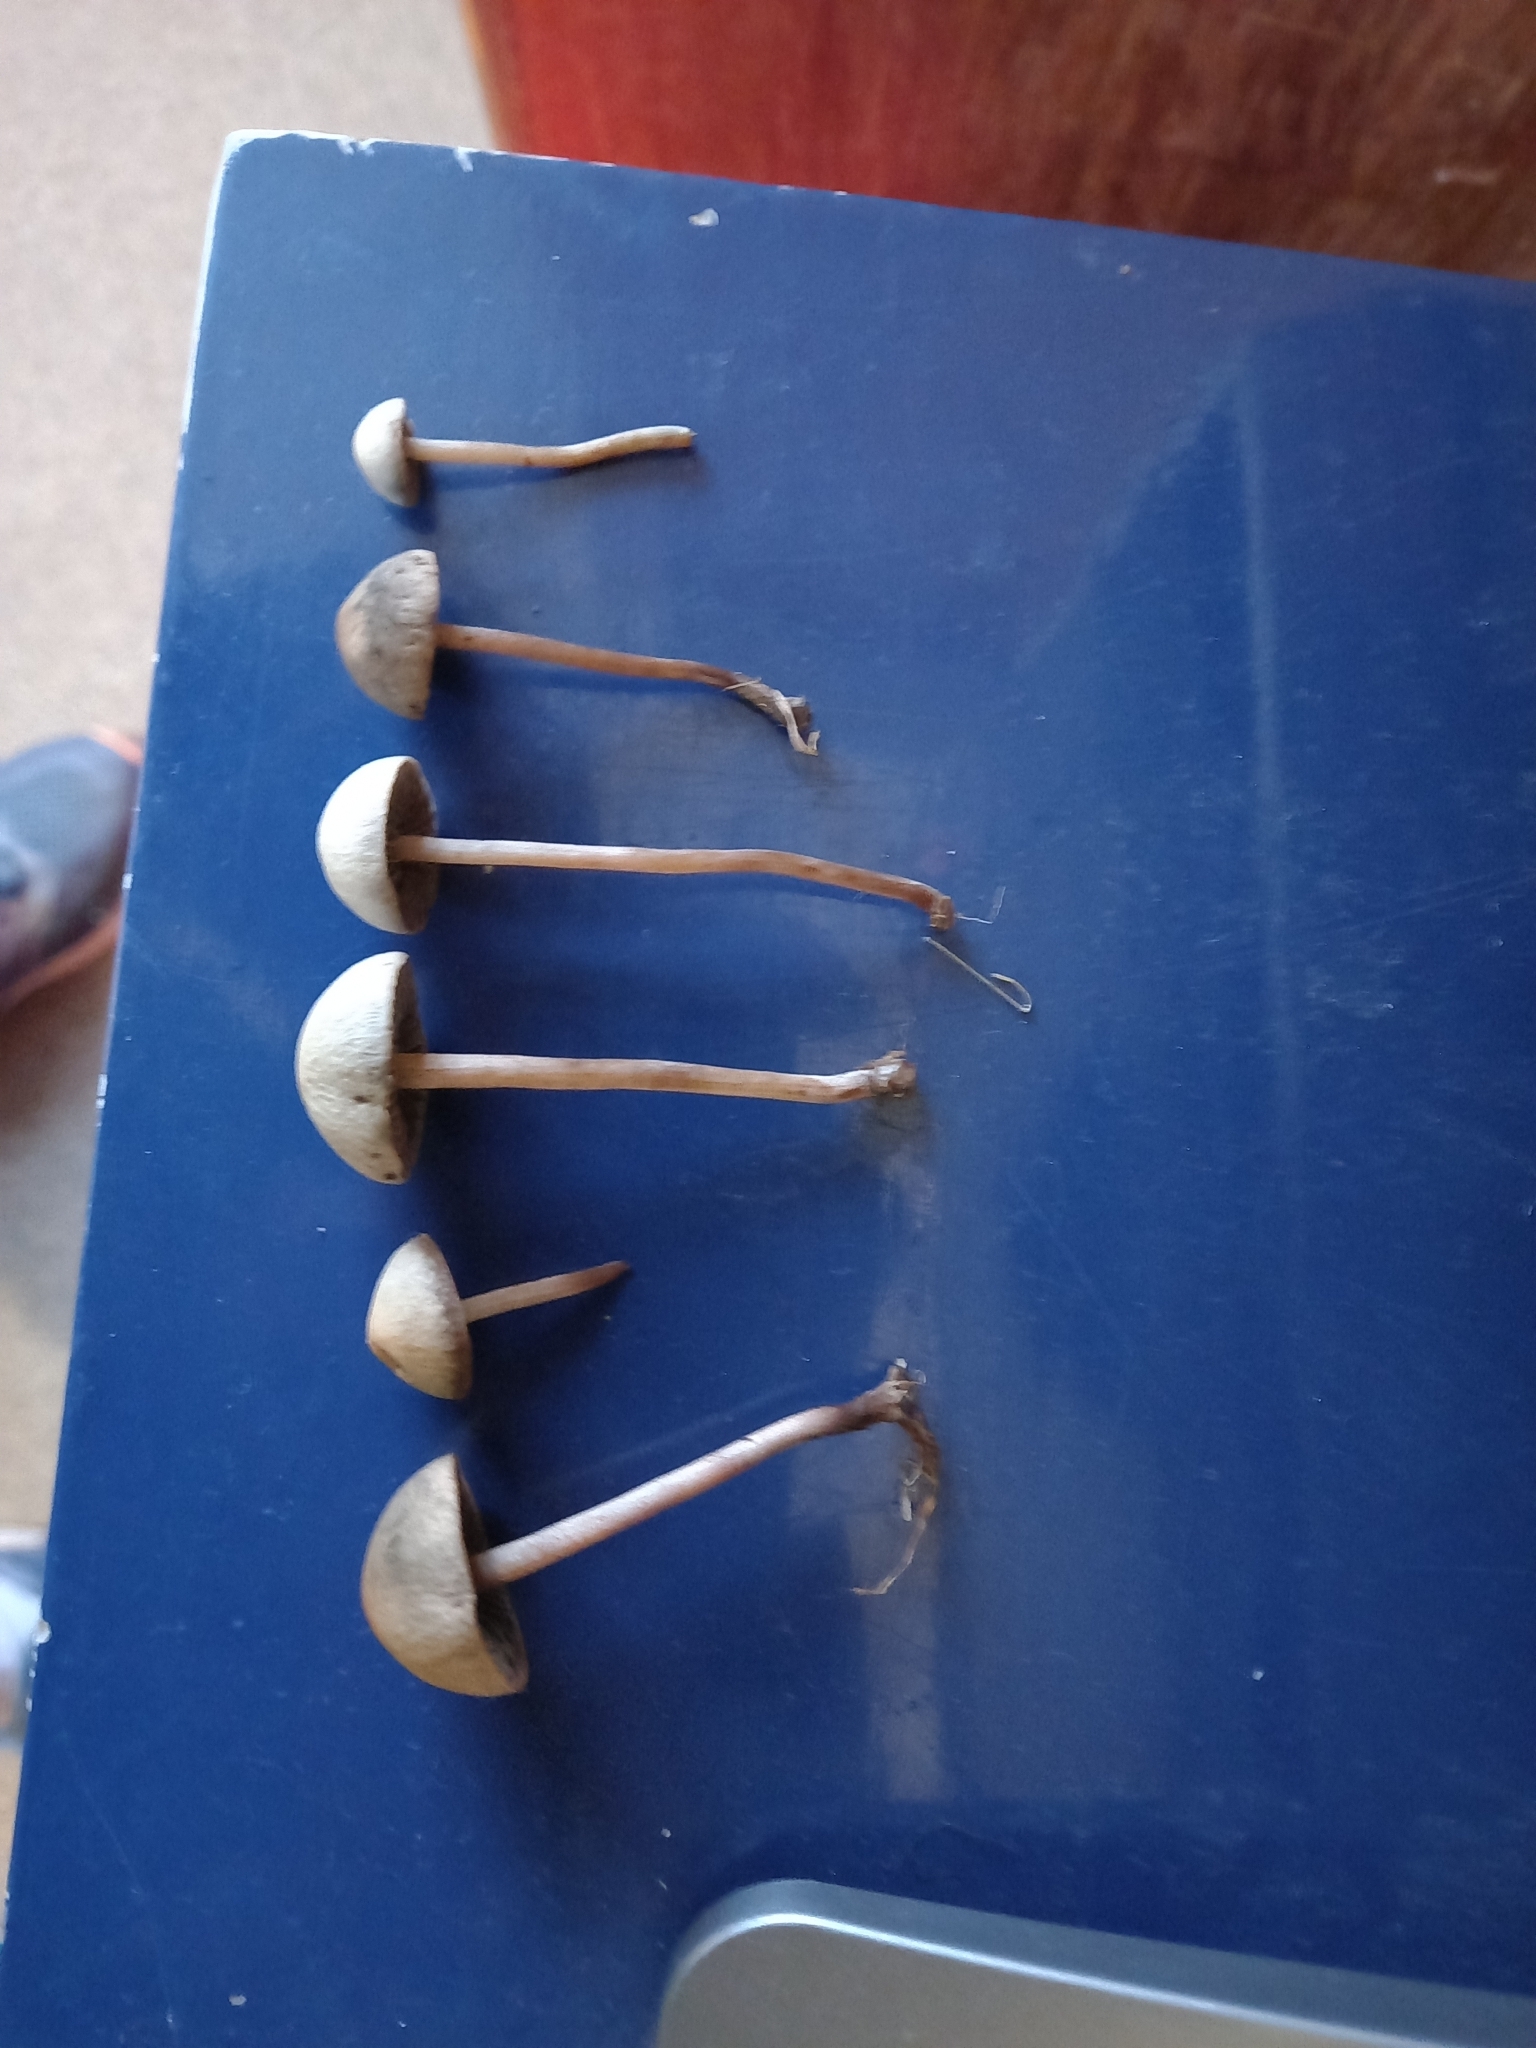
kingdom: Fungi
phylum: Basidiomycota
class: Agaricomycetes
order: Agaricales
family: Bolbitiaceae
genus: Panaeolus
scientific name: Panaeolus acuminatus
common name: Dewdrop mottlegill
